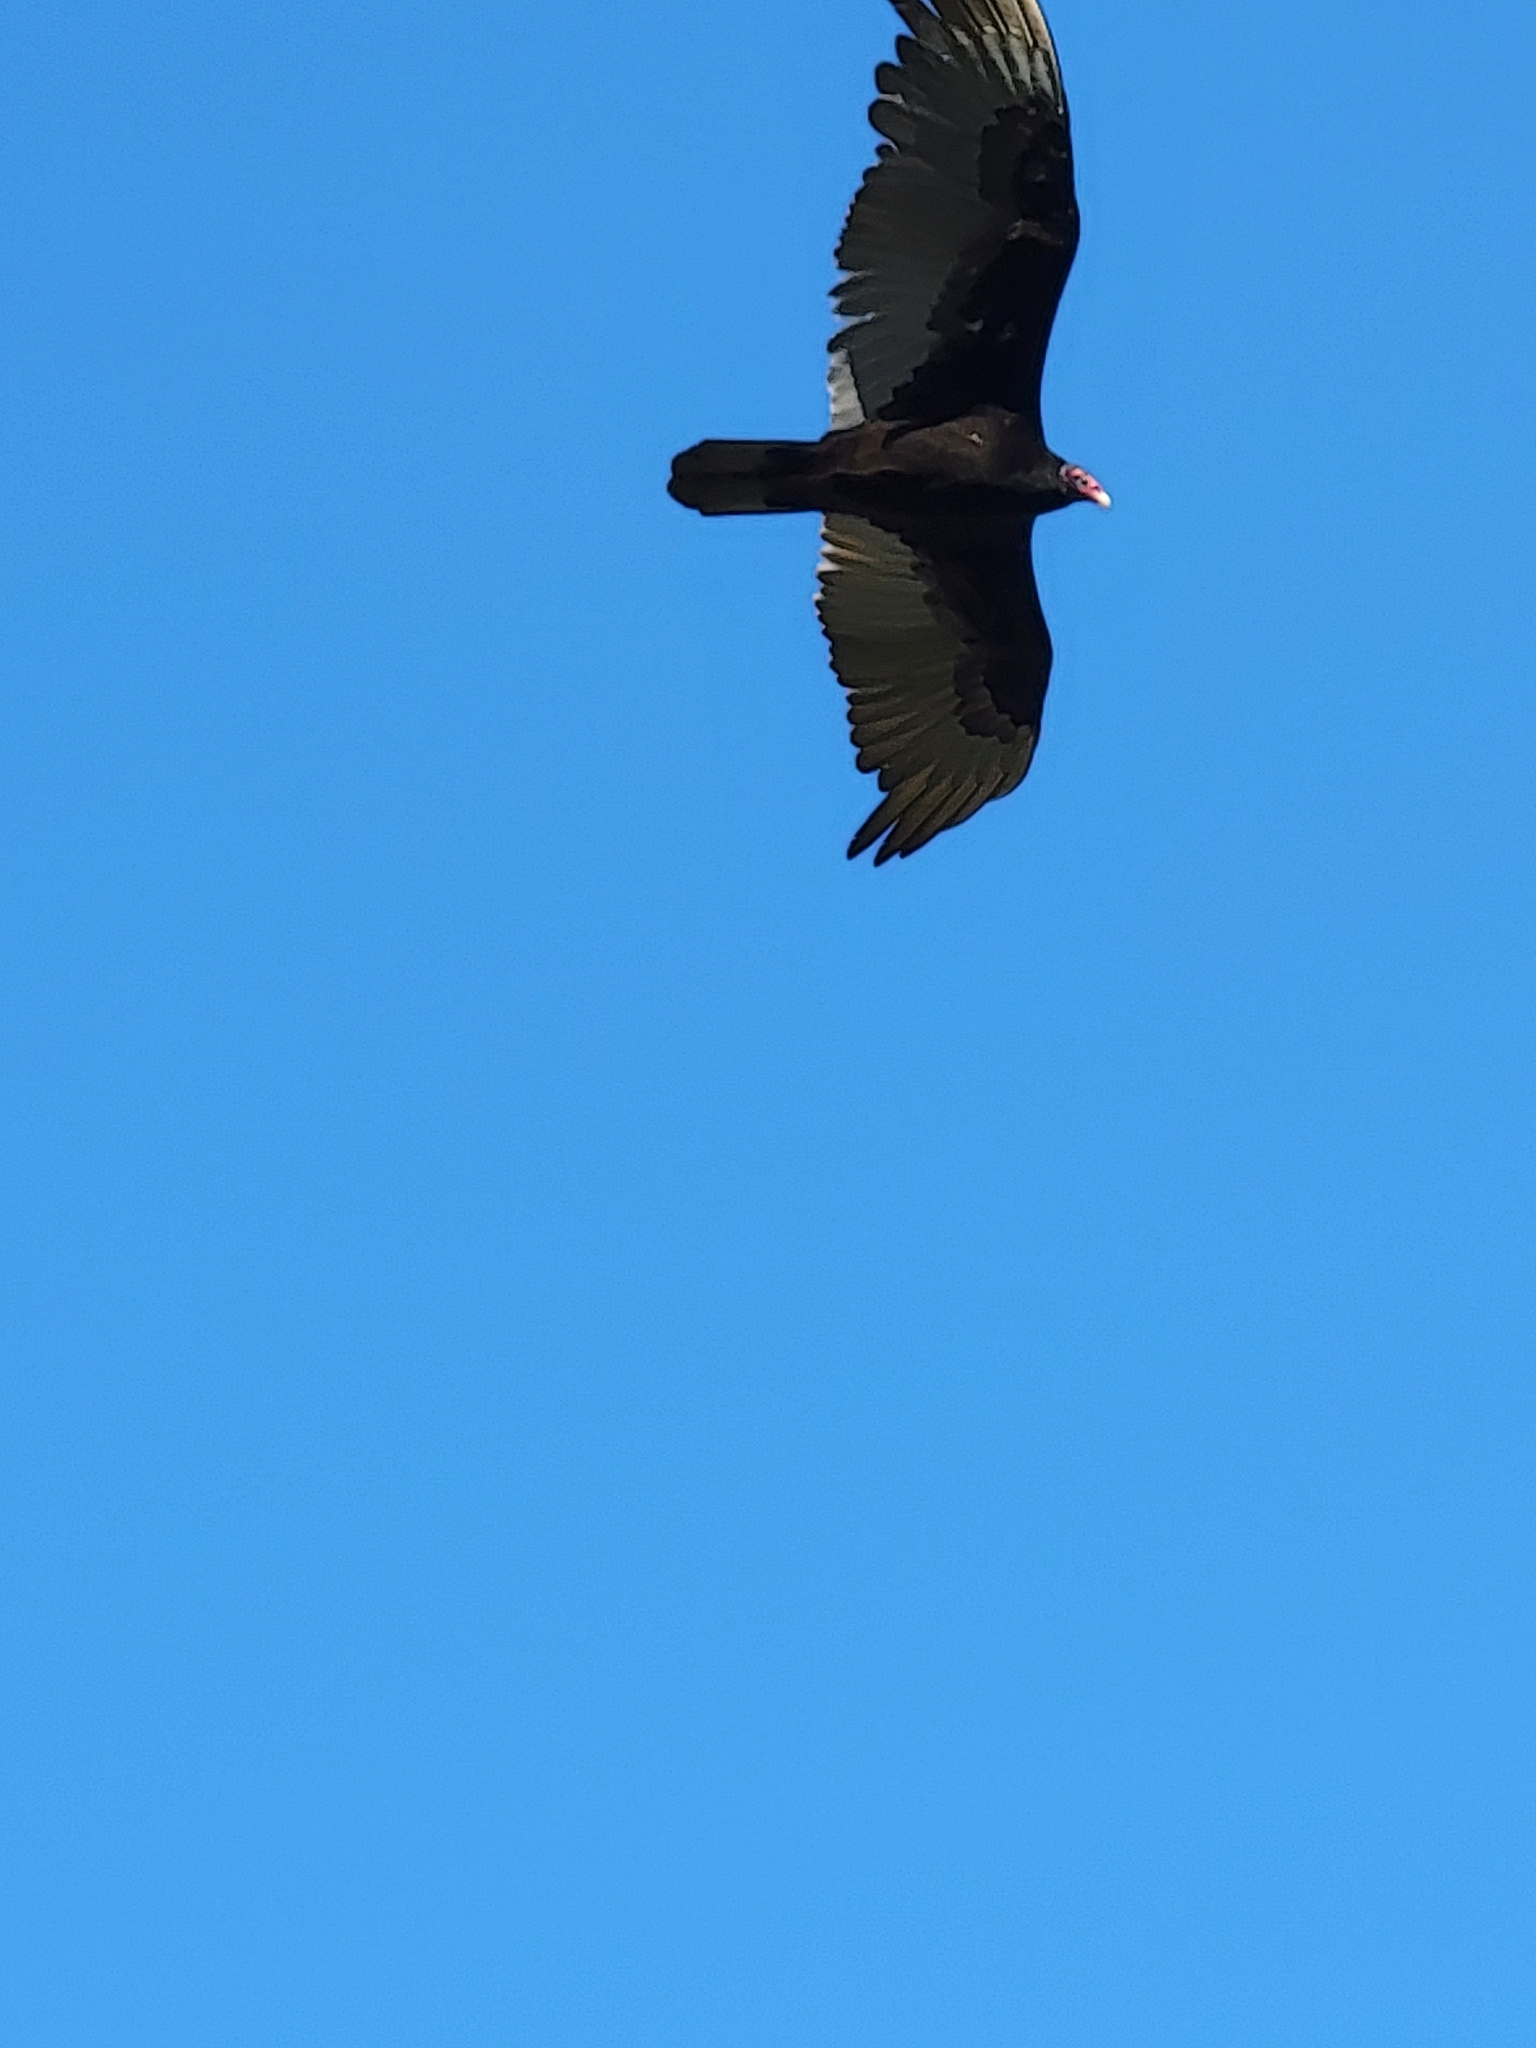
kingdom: Animalia
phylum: Chordata
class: Aves
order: Accipitriformes
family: Cathartidae
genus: Cathartes
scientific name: Cathartes aura
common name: Turkey vulture
